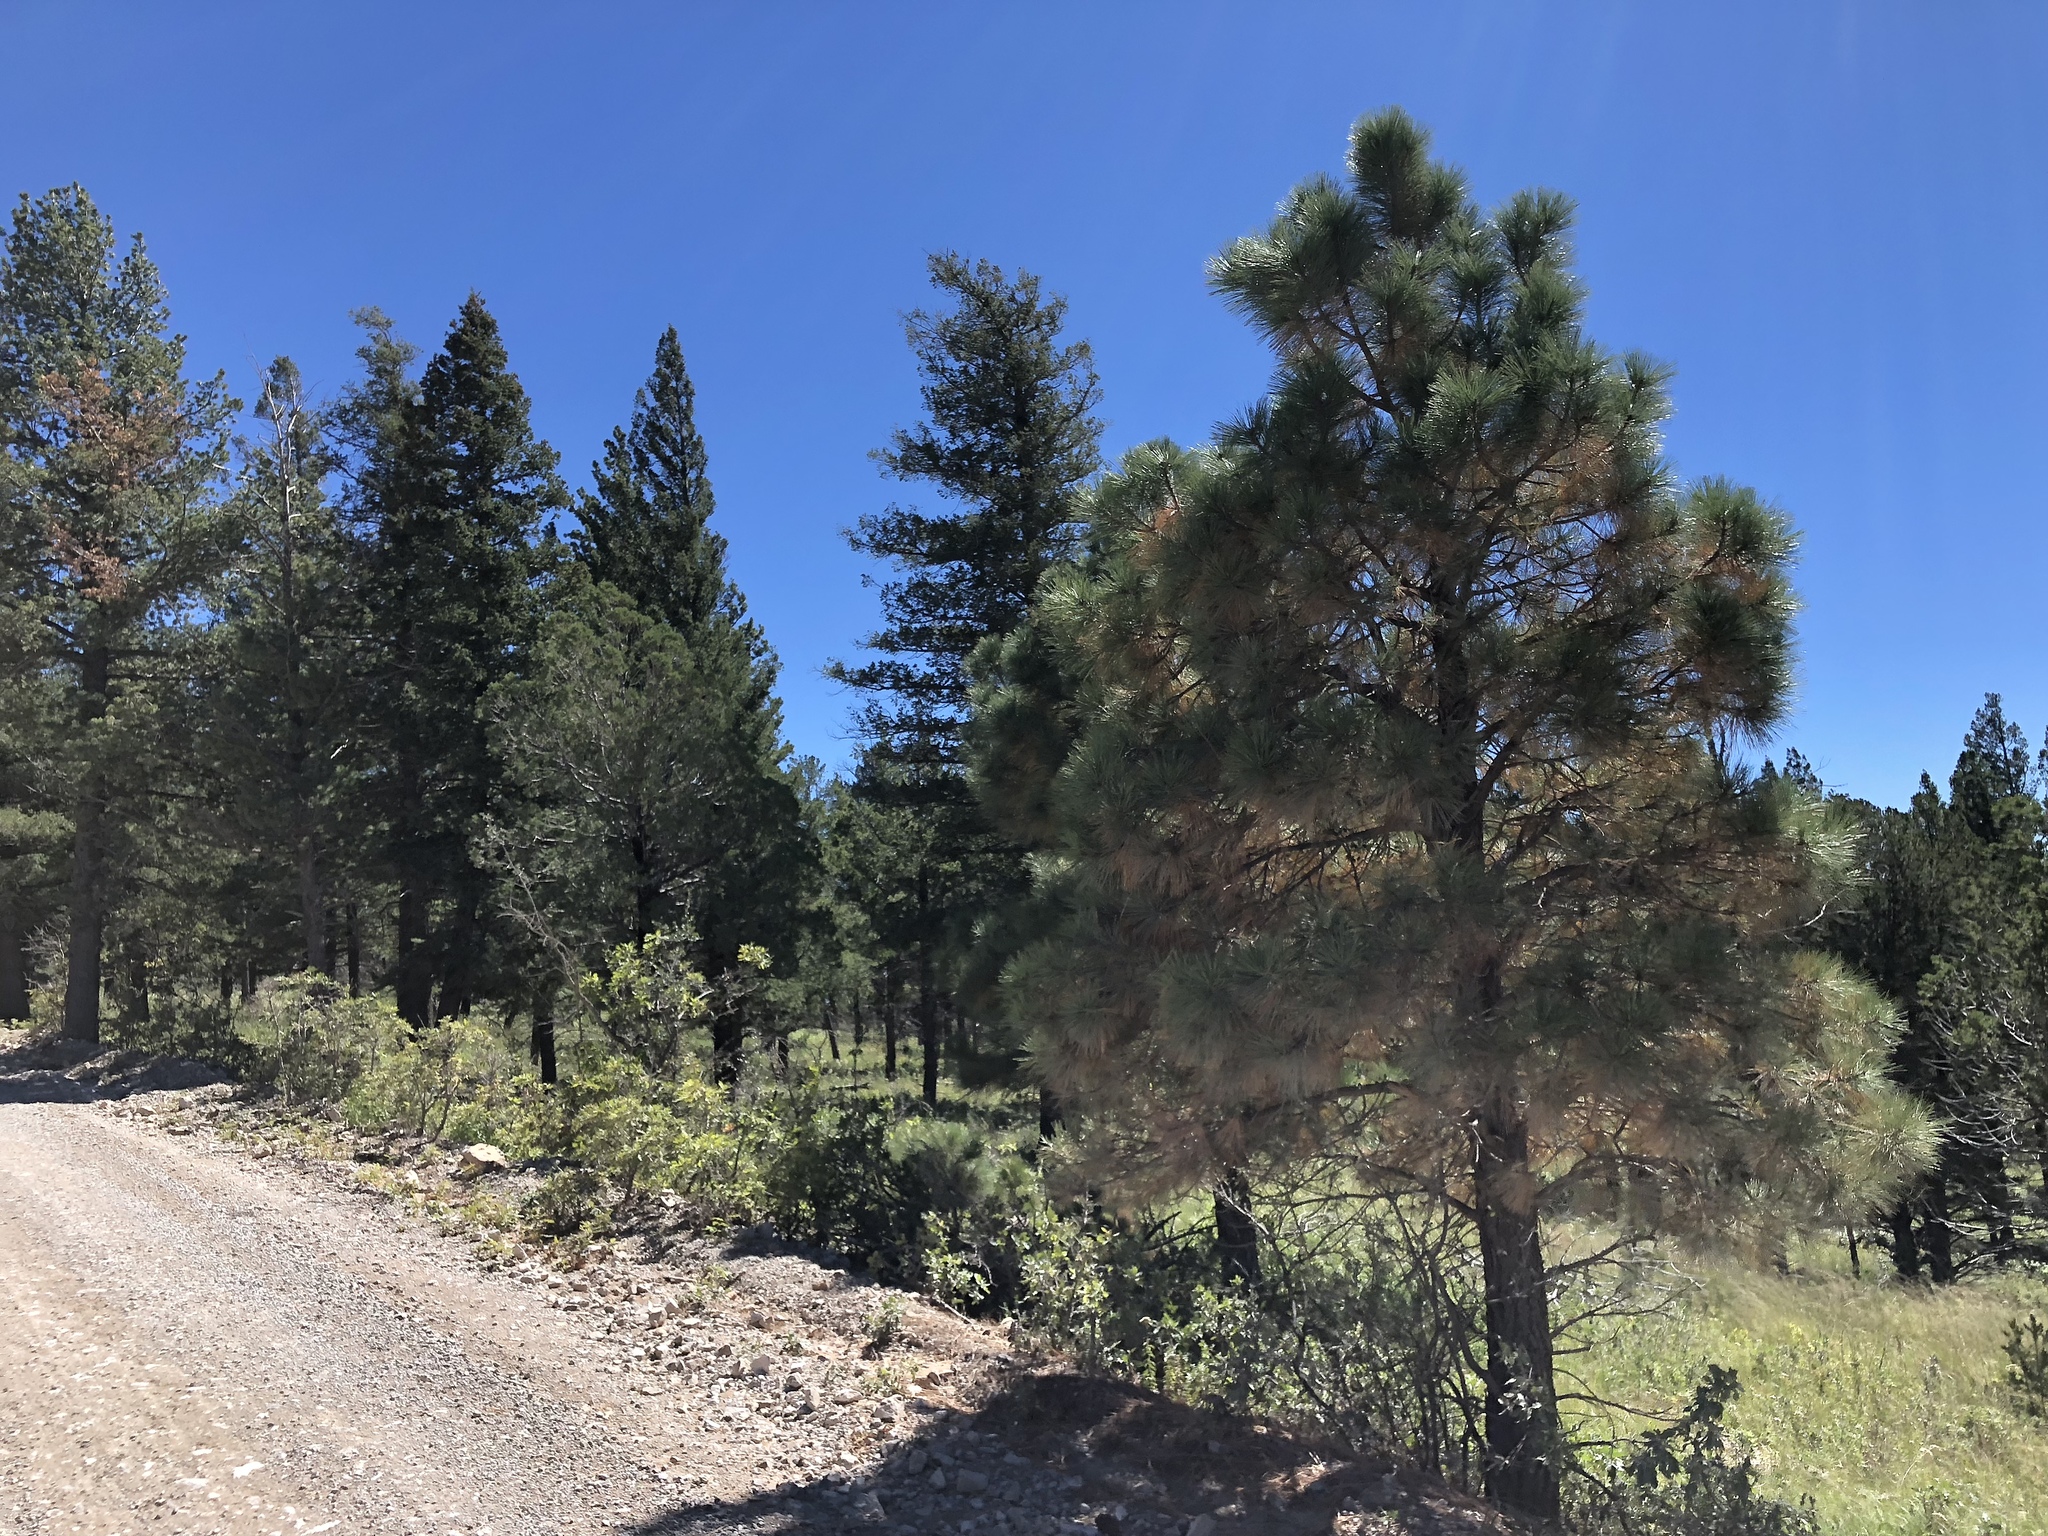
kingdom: Plantae
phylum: Tracheophyta
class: Pinopsida
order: Pinales
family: Pinaceae
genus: Pinus
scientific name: Pinus ponderosa
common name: Western yellow-pine
